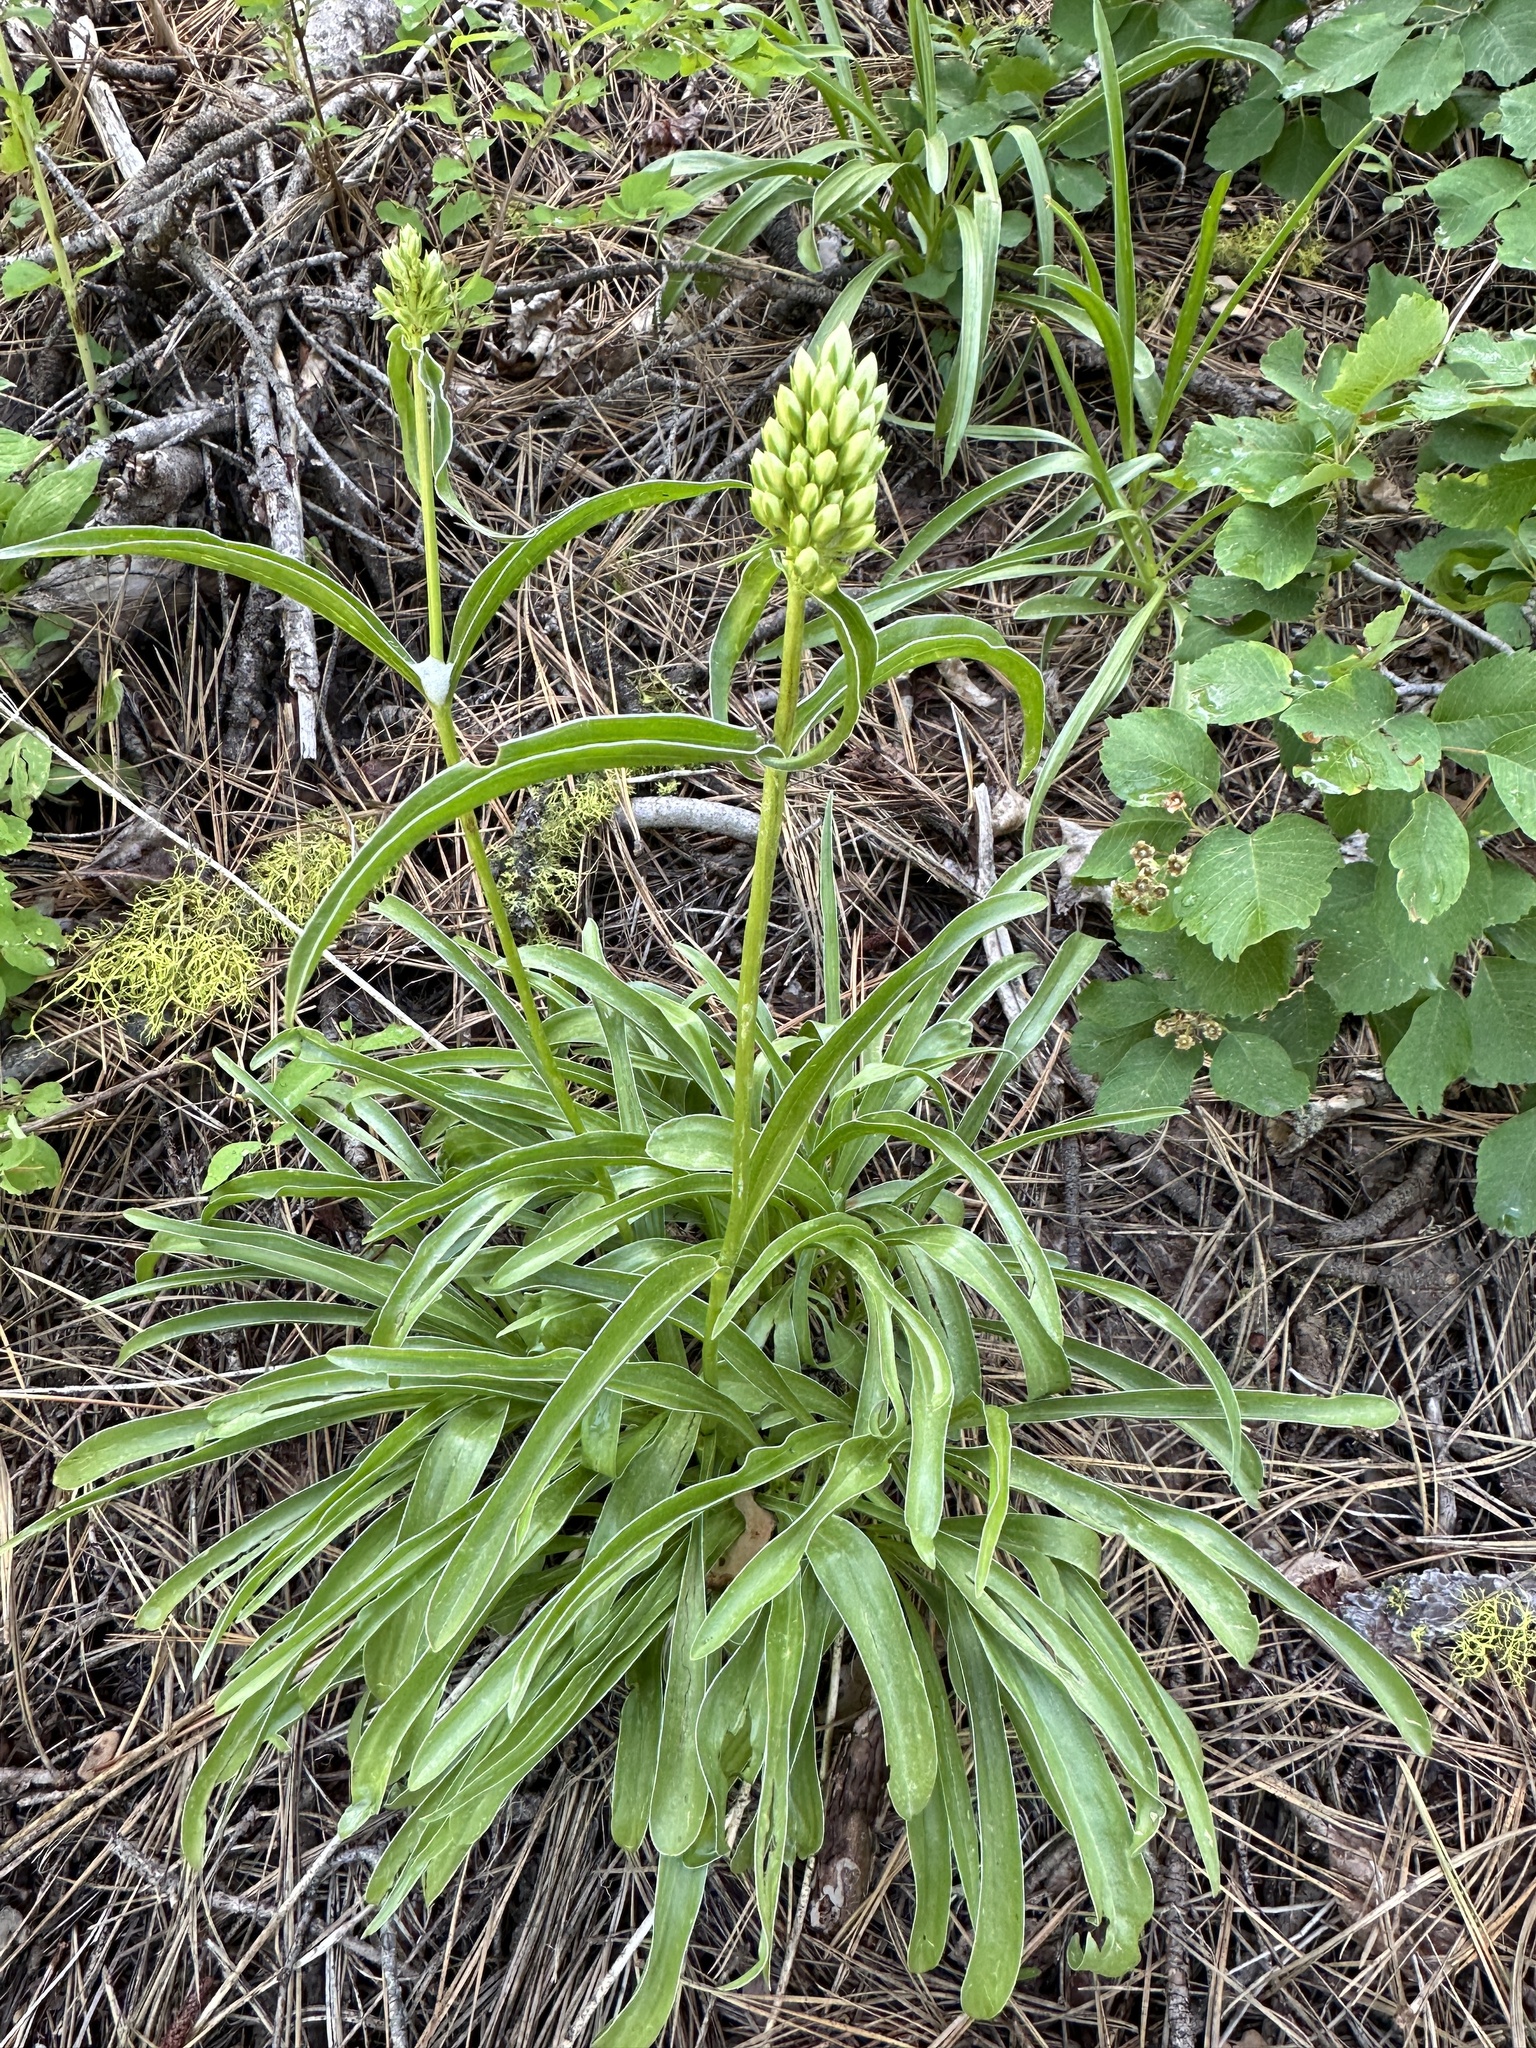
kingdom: Plantae
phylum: Tracheophyta
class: Magnoliopsida
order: Gentianales
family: Gentianaceae
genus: Frasera
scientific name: Frasera montana
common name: White frasera
